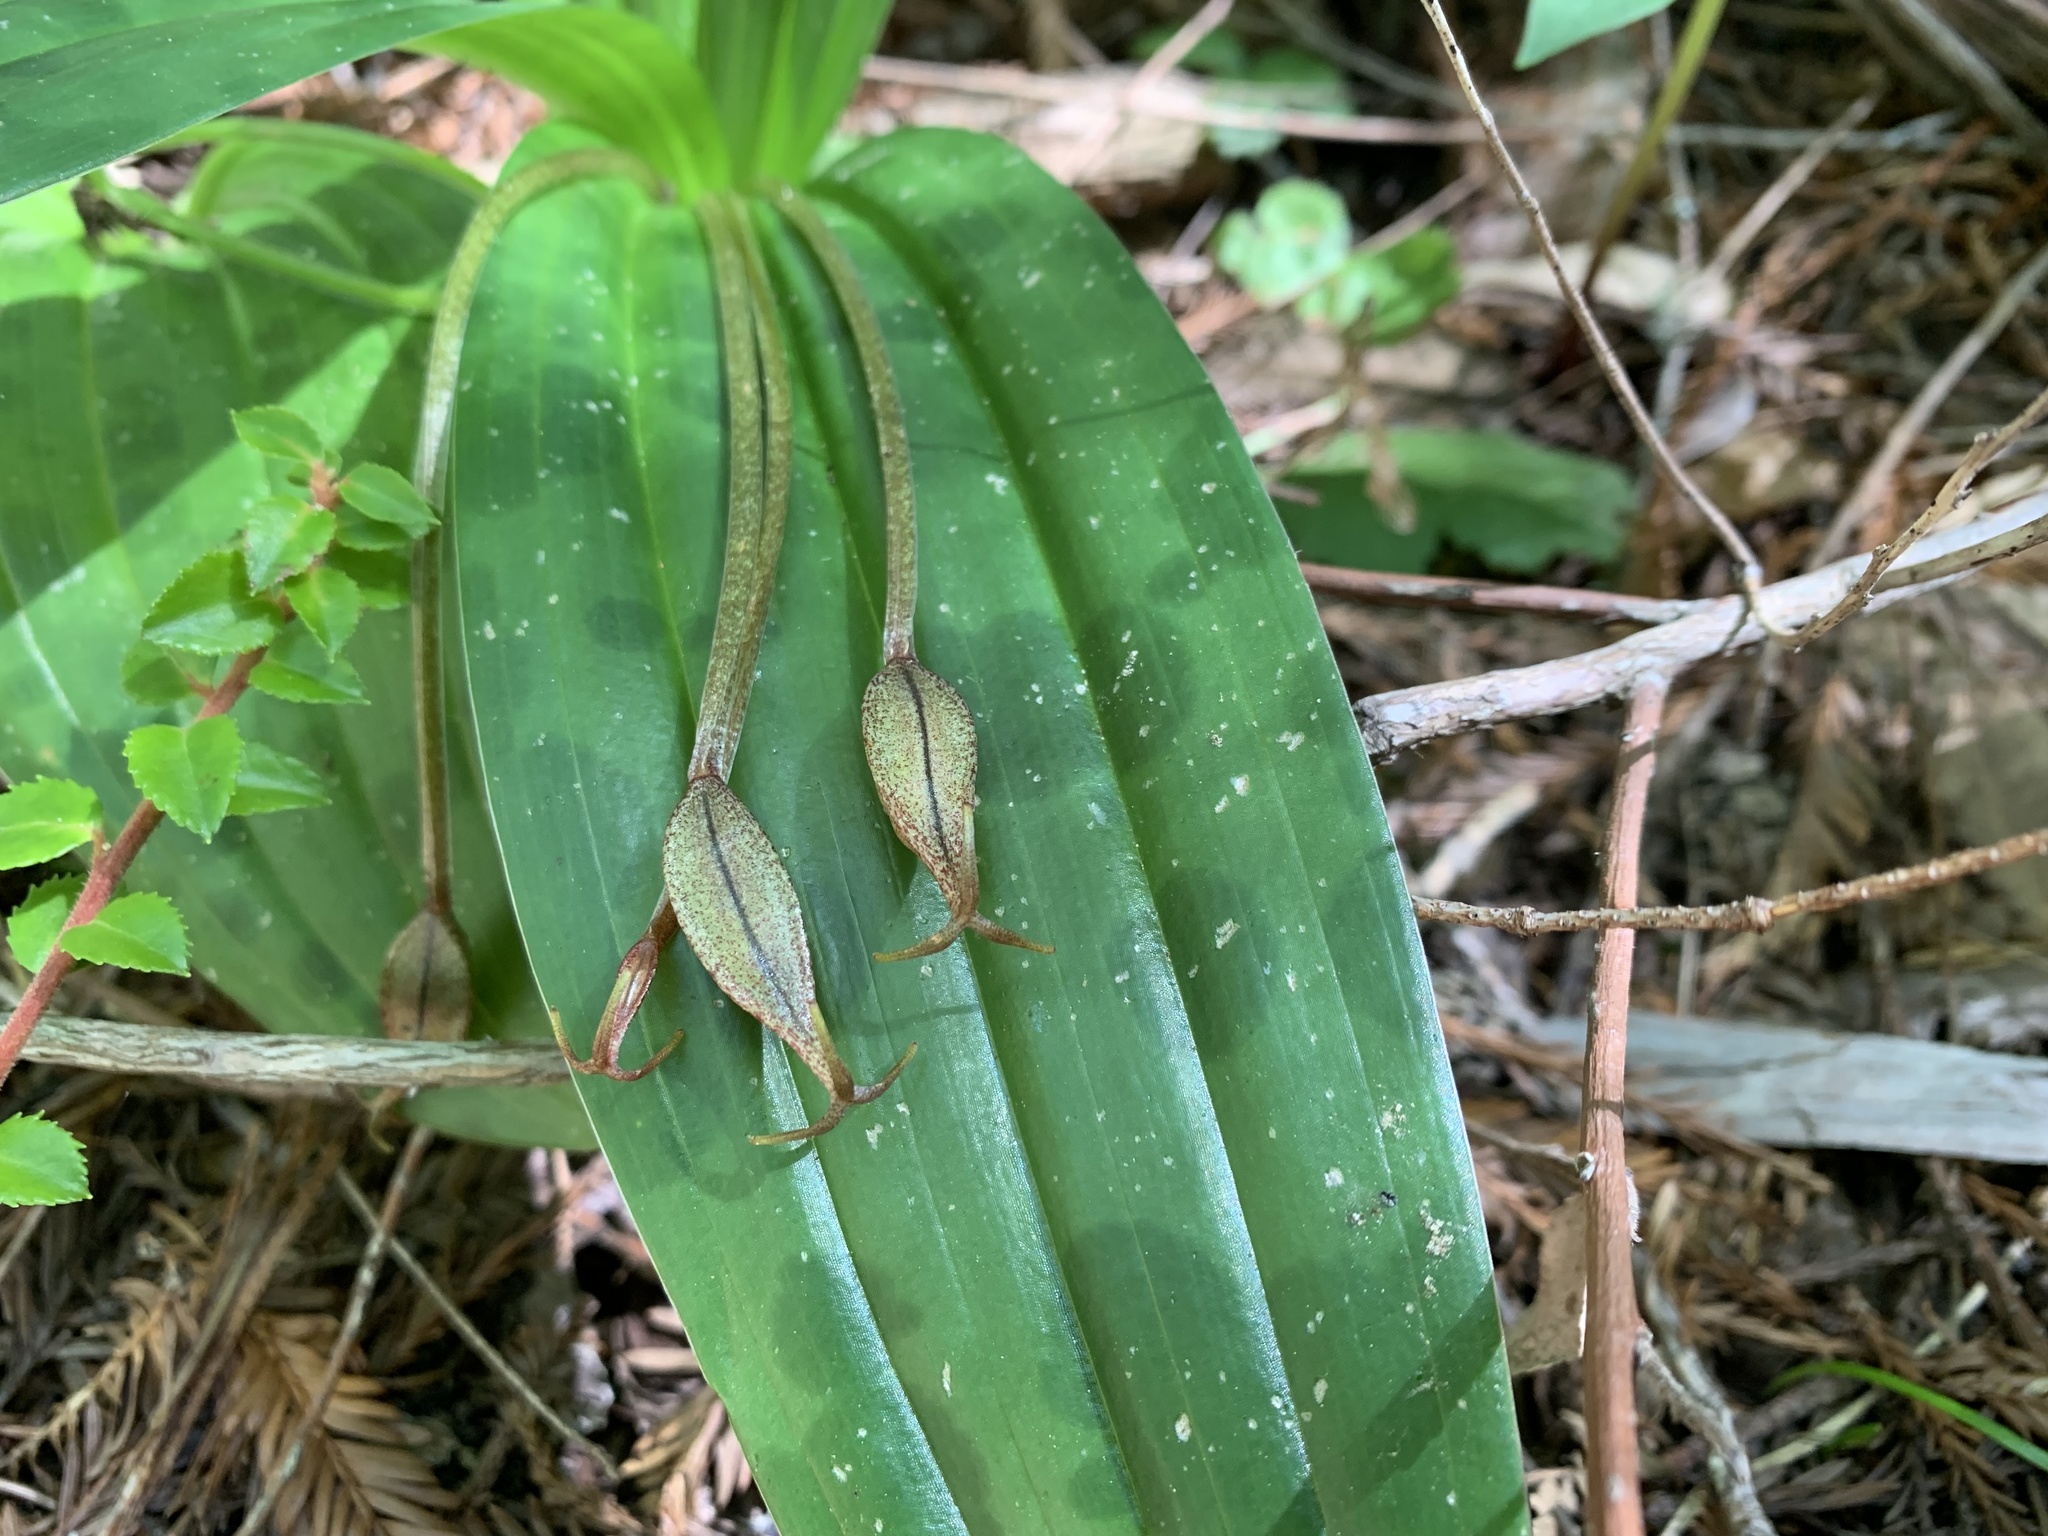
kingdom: Plantae
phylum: Tracheophyta
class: Liliopsida
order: Liliales
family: Liliaceae
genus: Scoliopus
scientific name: Scoliopus bigelovii
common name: Foetid adder's-tongue
